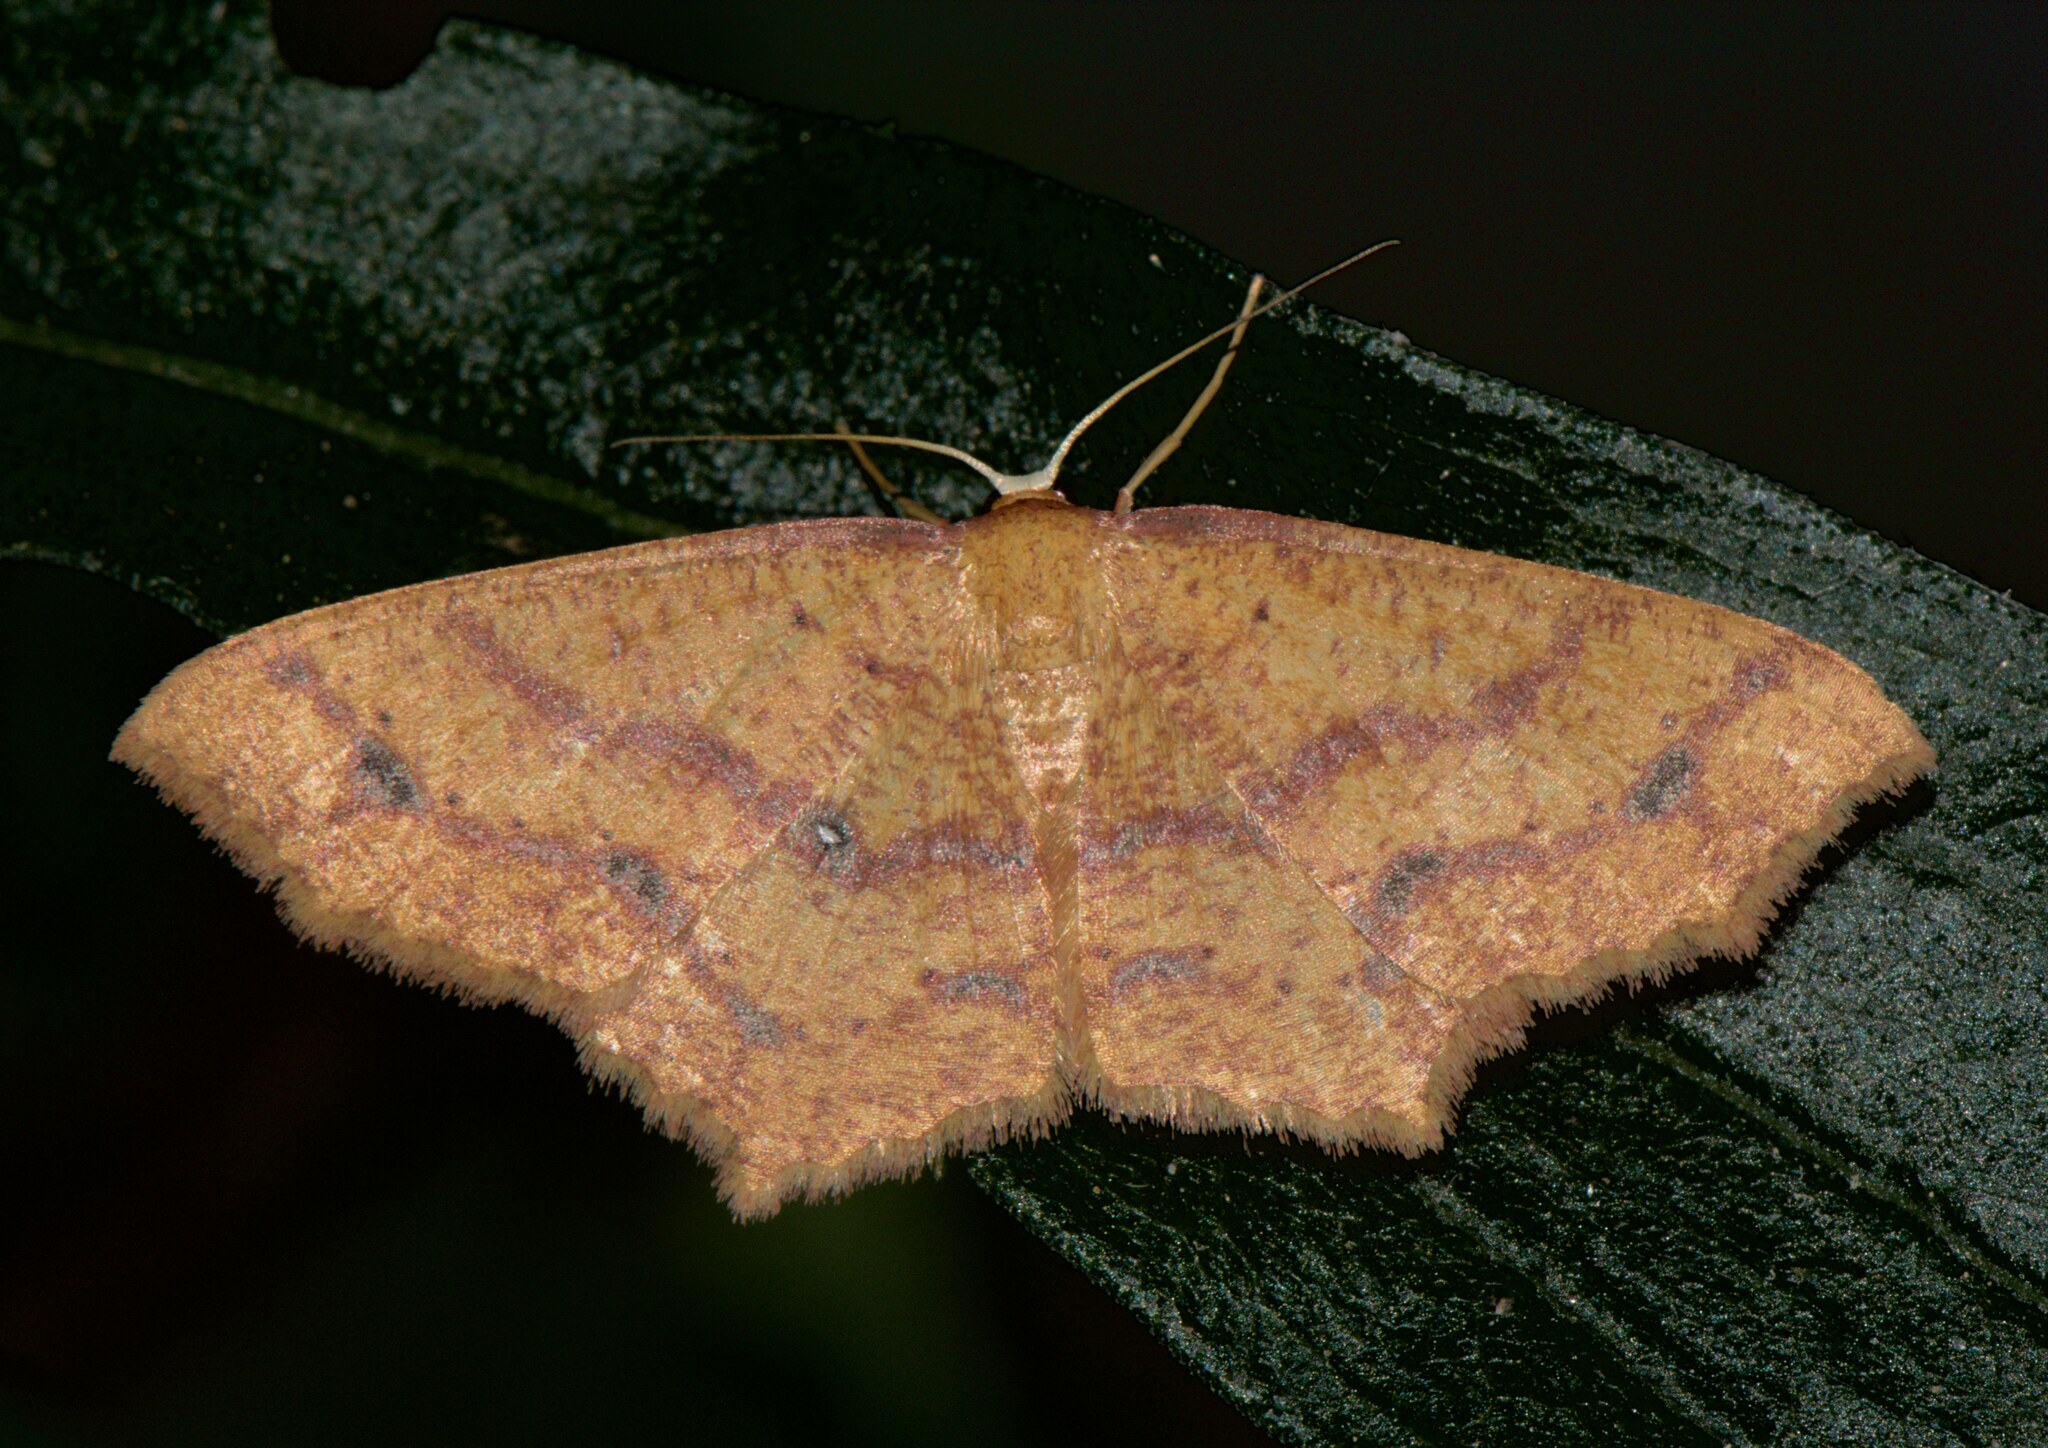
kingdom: Animalia
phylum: Arthropoda
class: Insecta
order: Lepidoptera
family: Geometridae
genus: Synegiodes
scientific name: Synegiodes hyriaria
